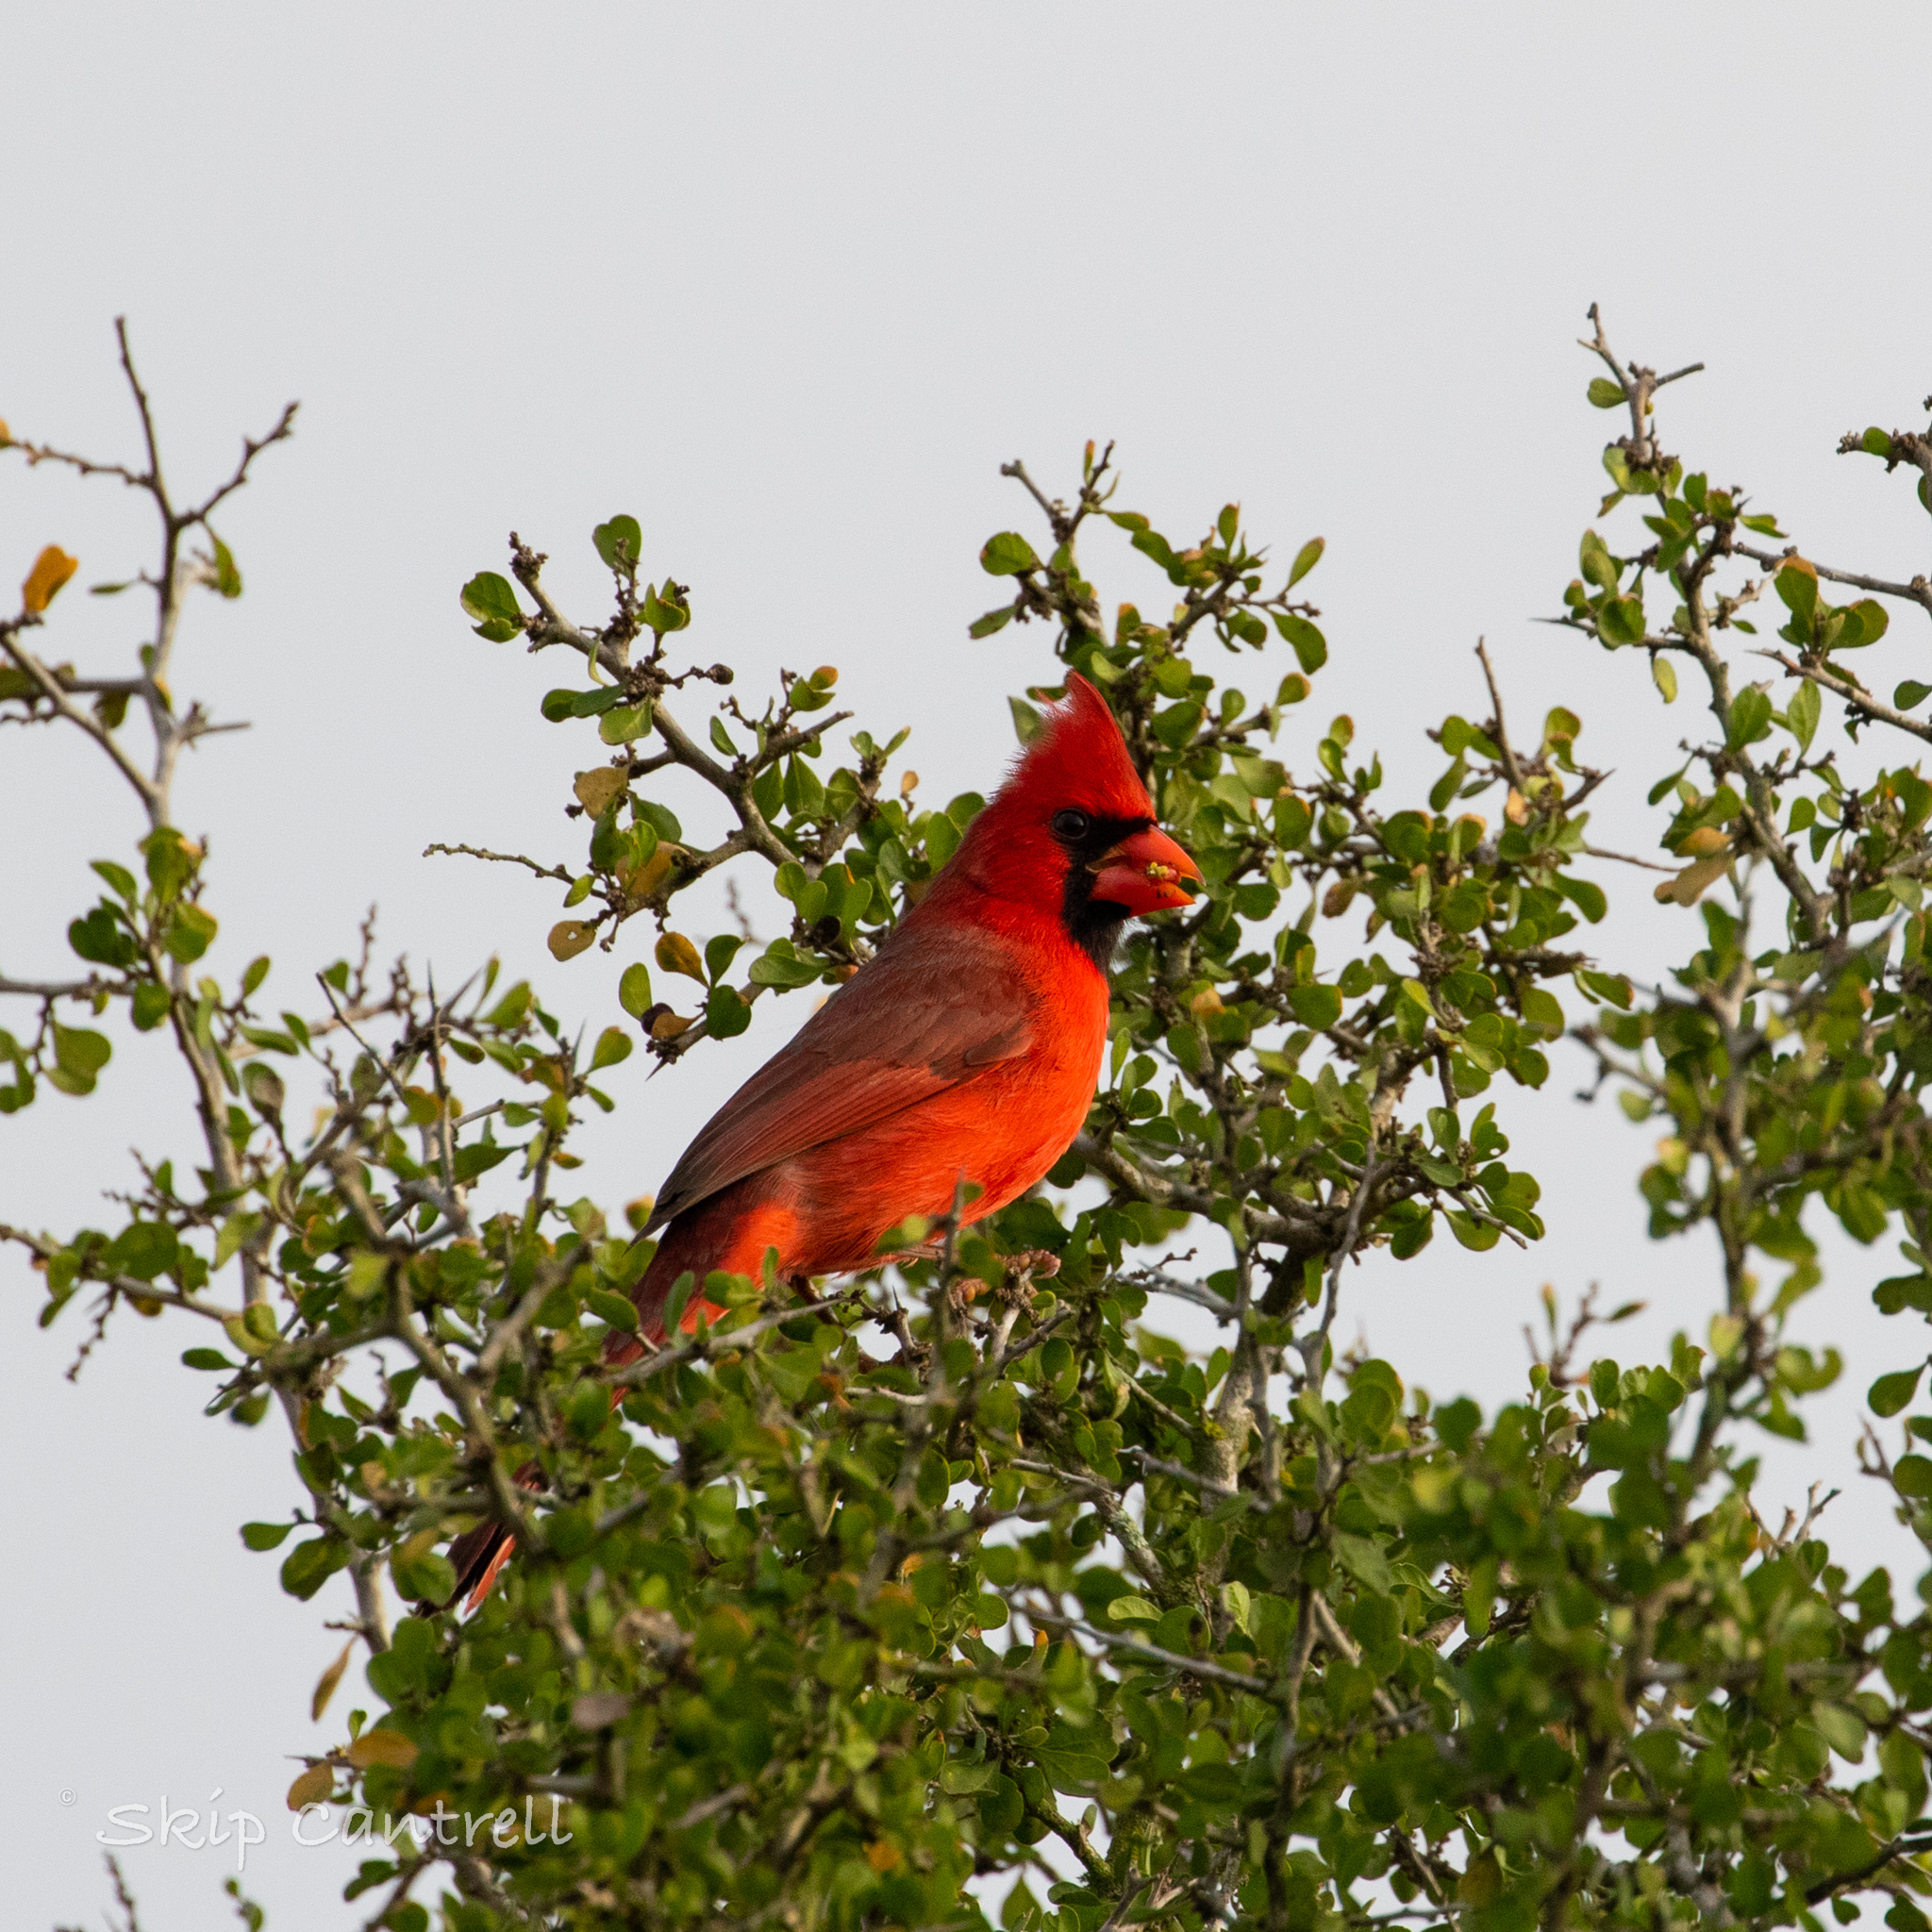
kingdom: Animalia
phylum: Chordata
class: Aves
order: Passeriformes
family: Cardinalidae
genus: Cardinalis
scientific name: Cardinalis cardinalis
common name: Northern cardinal
